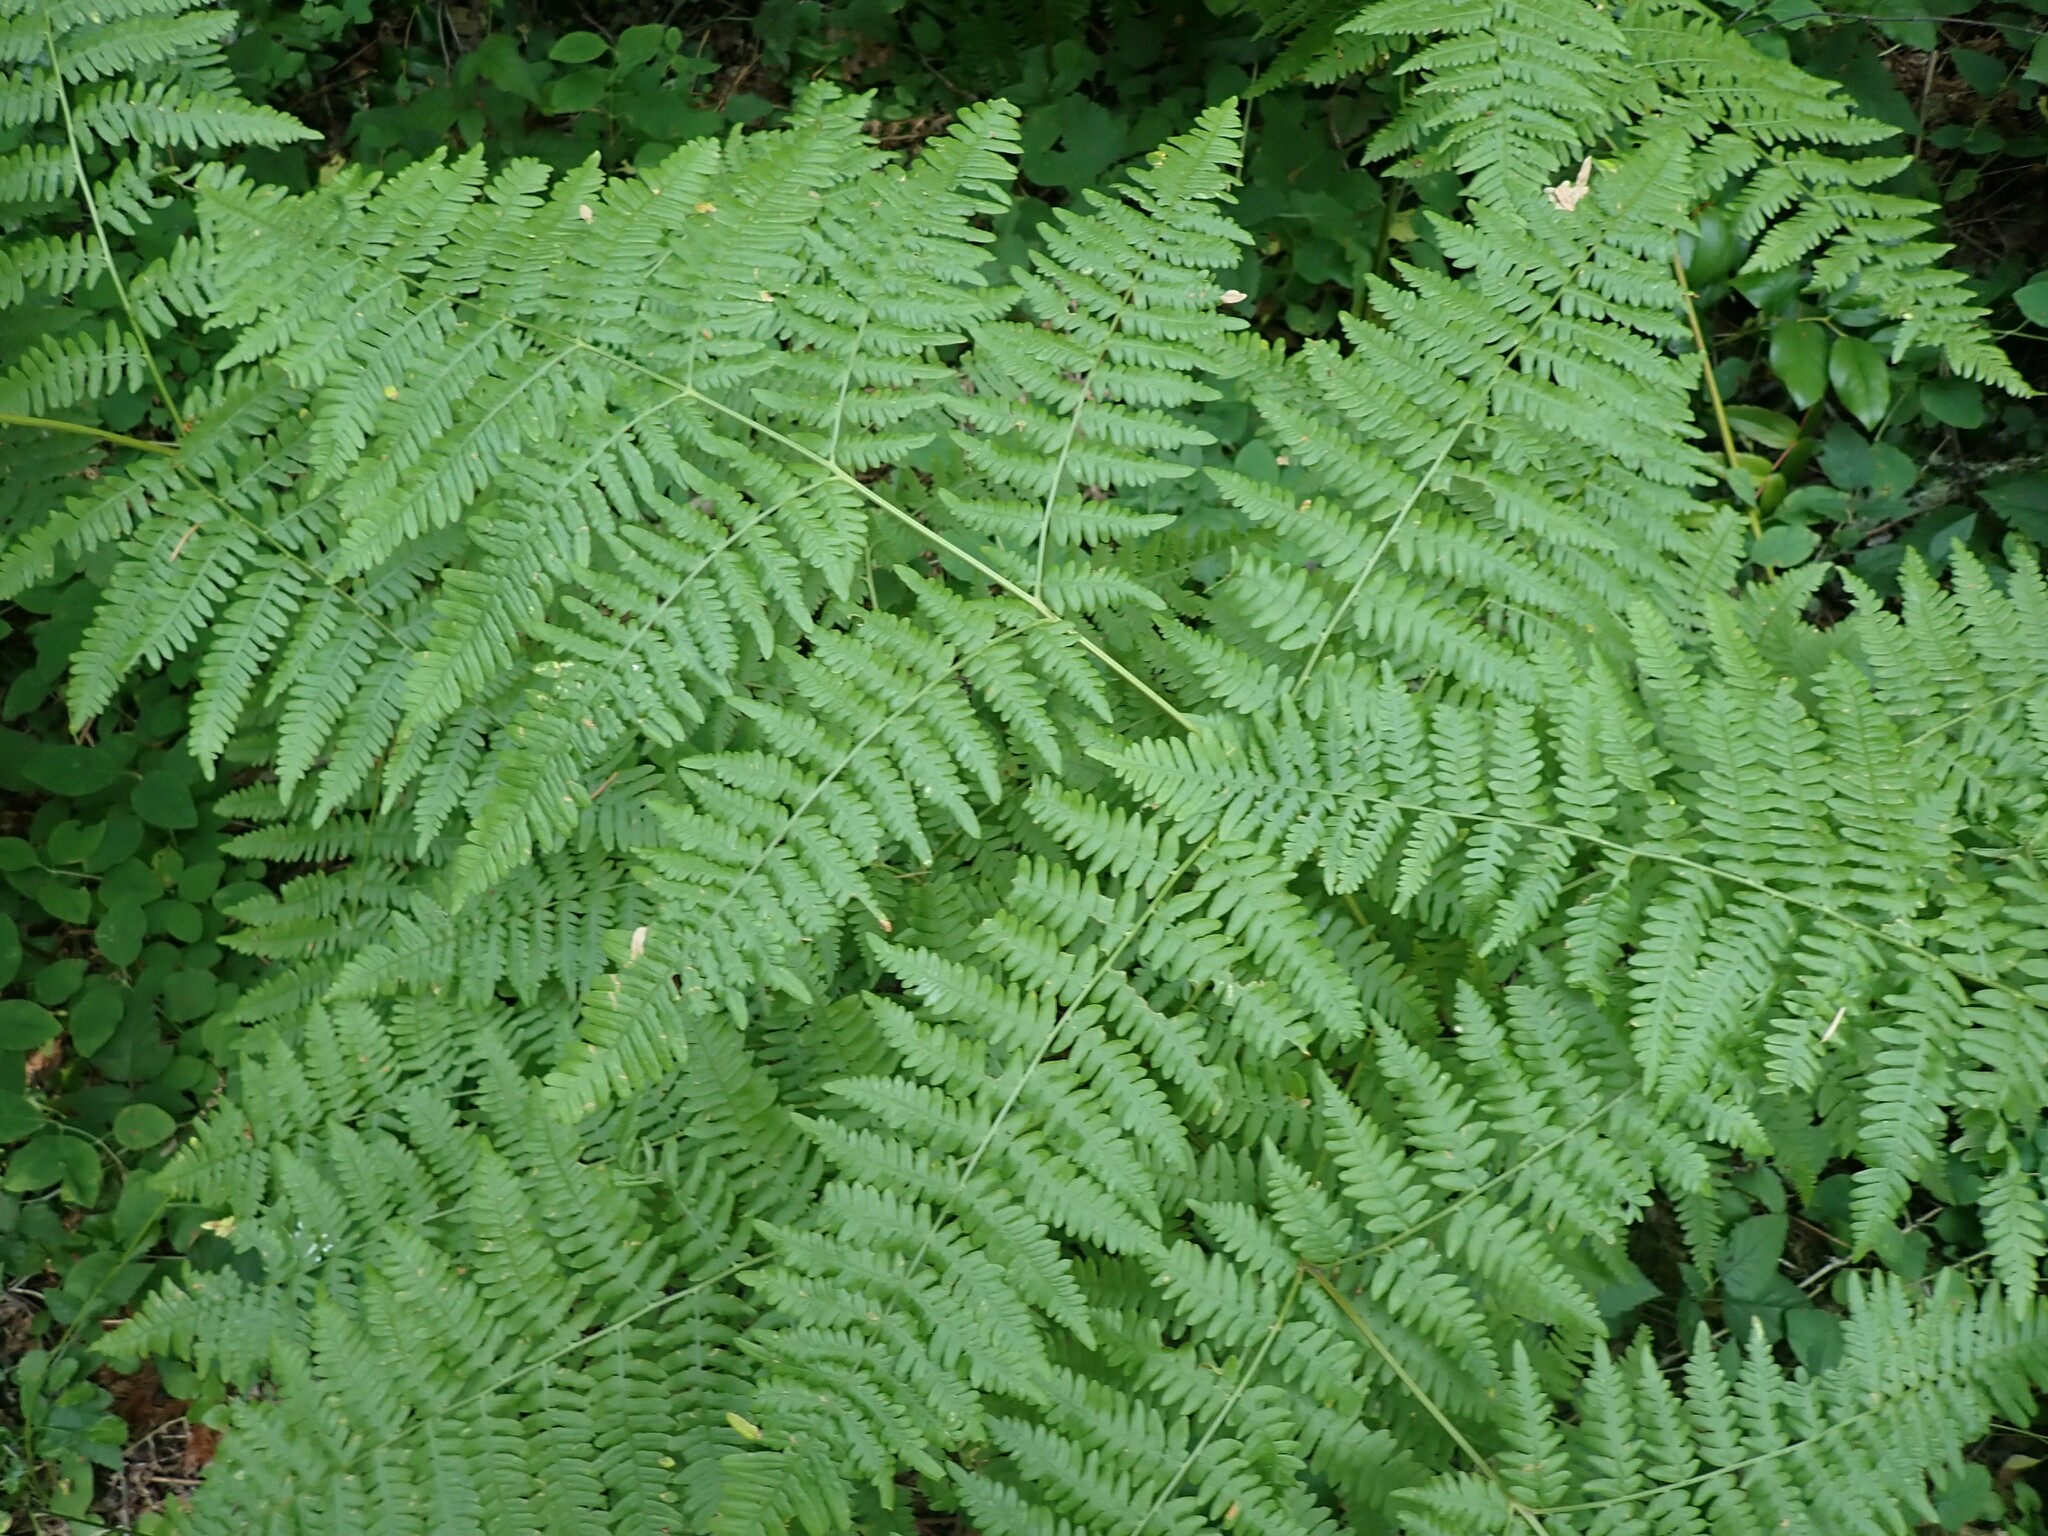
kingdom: Plantae
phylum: Tracheophyta
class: Polypodiopsida
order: Polypodiales
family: Dennstaedtiaceae
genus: Pteridium
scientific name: Pteridium aquilinum
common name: Bracken
